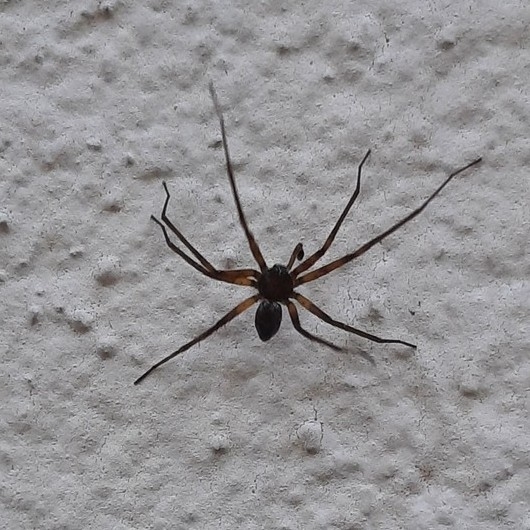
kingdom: Animalia
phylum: Arthropoda
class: Arachnida
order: Araneae
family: Philodromidae
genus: Philodromus
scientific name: Philodromus
